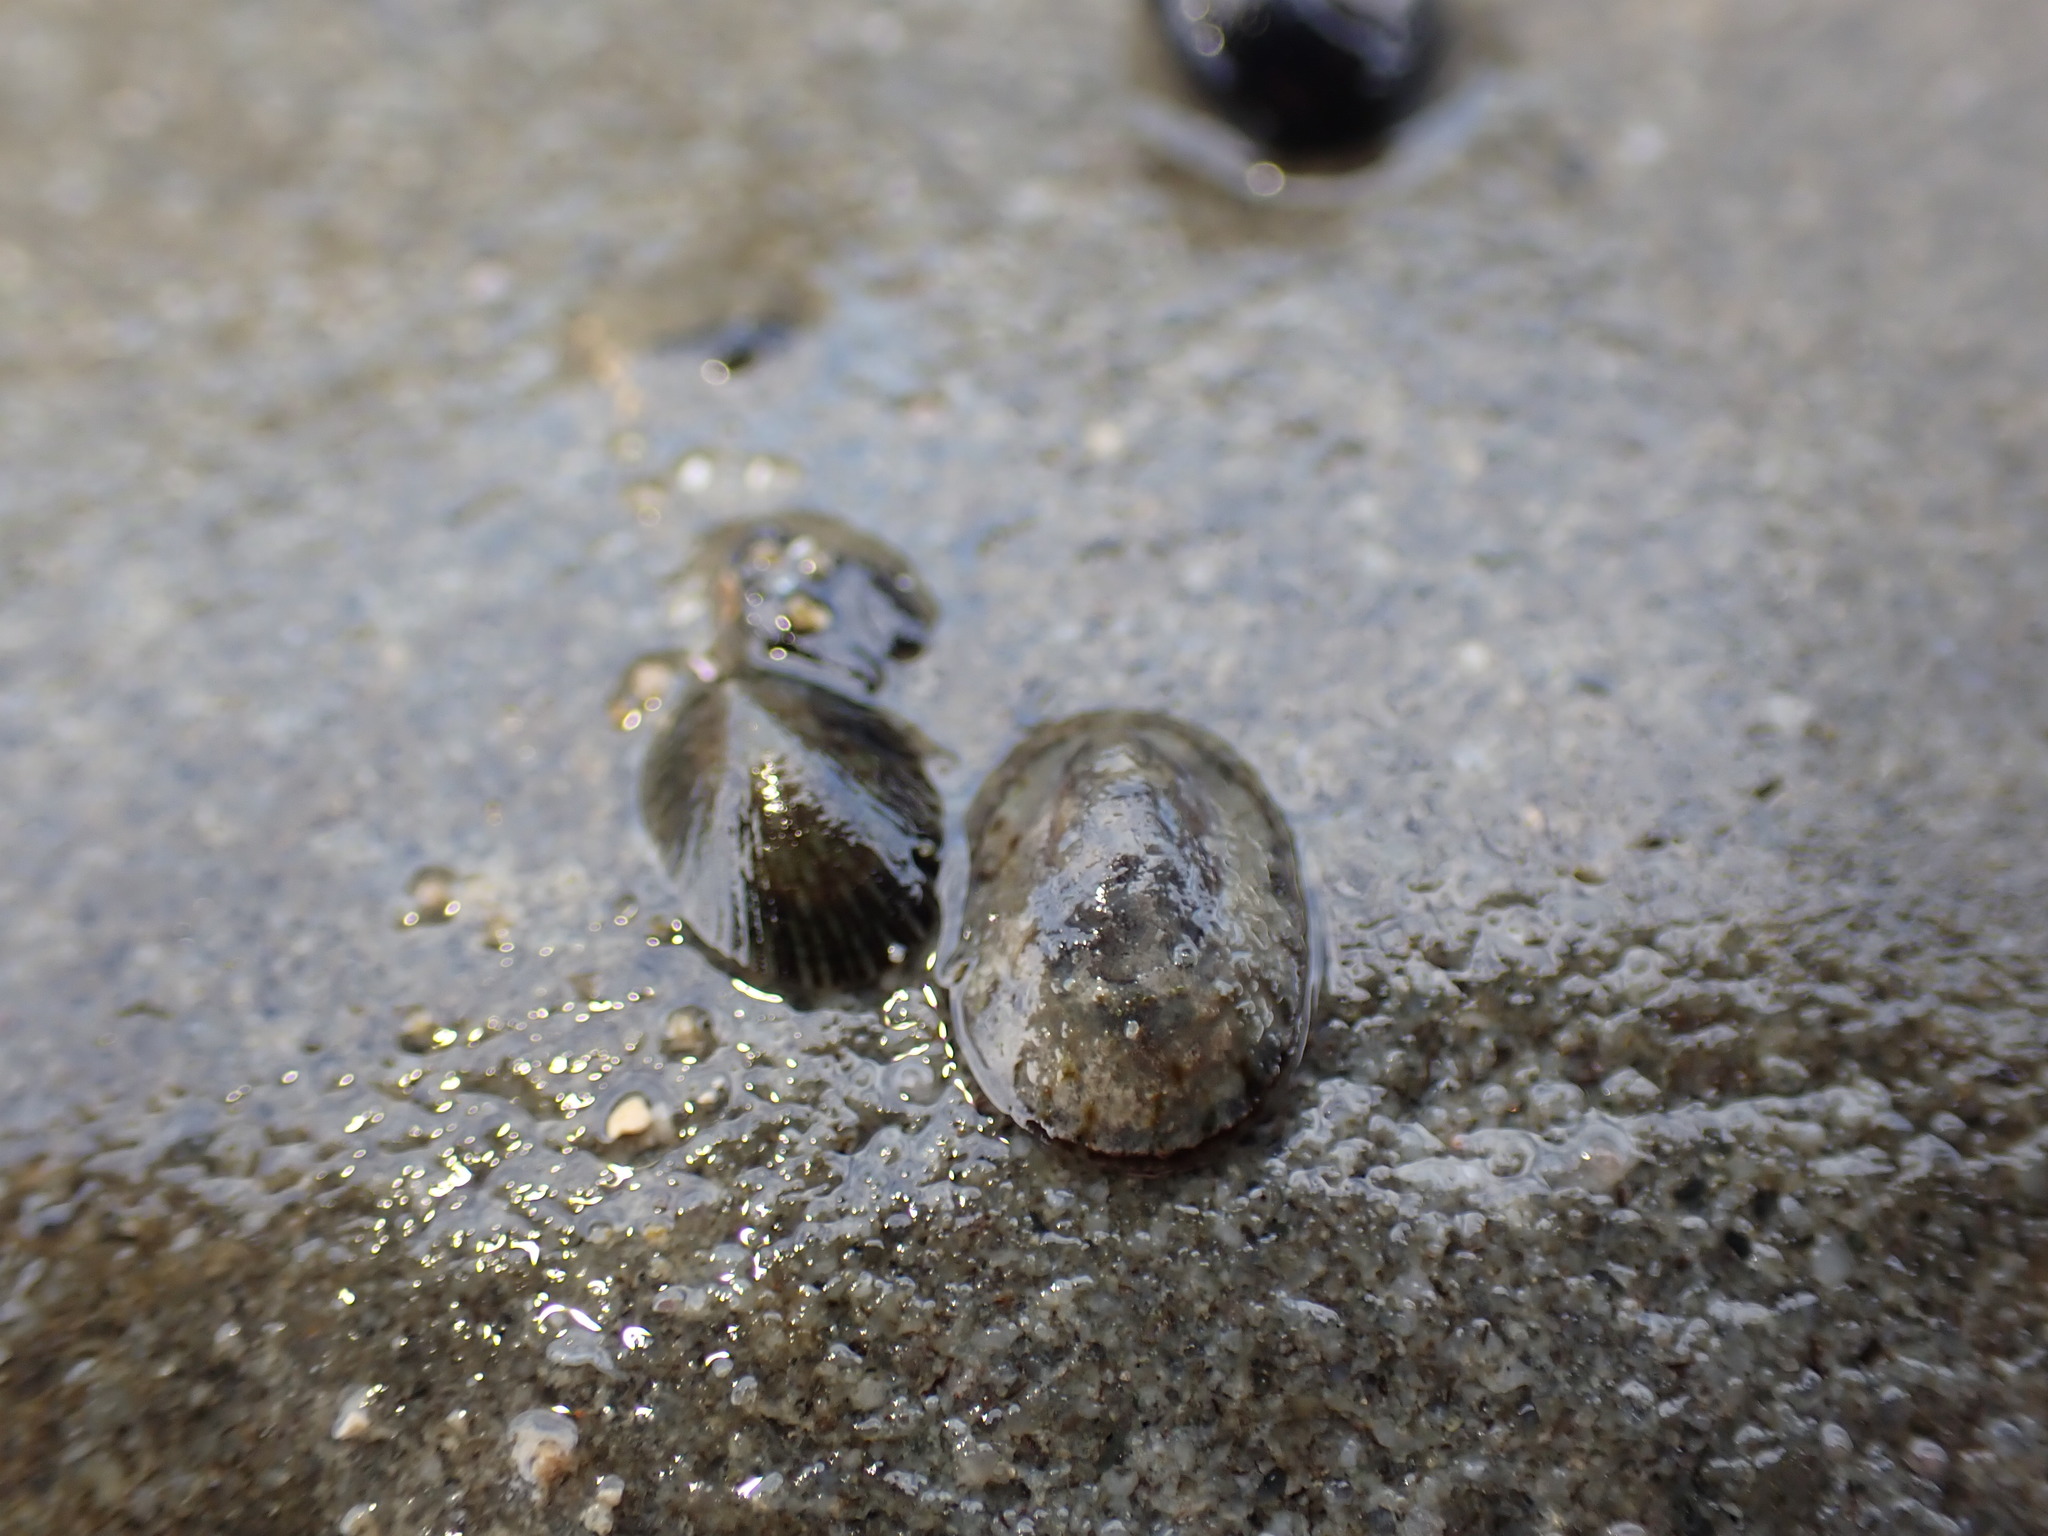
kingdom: Animalia
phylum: Mollusca
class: Gastropoda
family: Lottiidae
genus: Notoacmea
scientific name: Notoacmea
